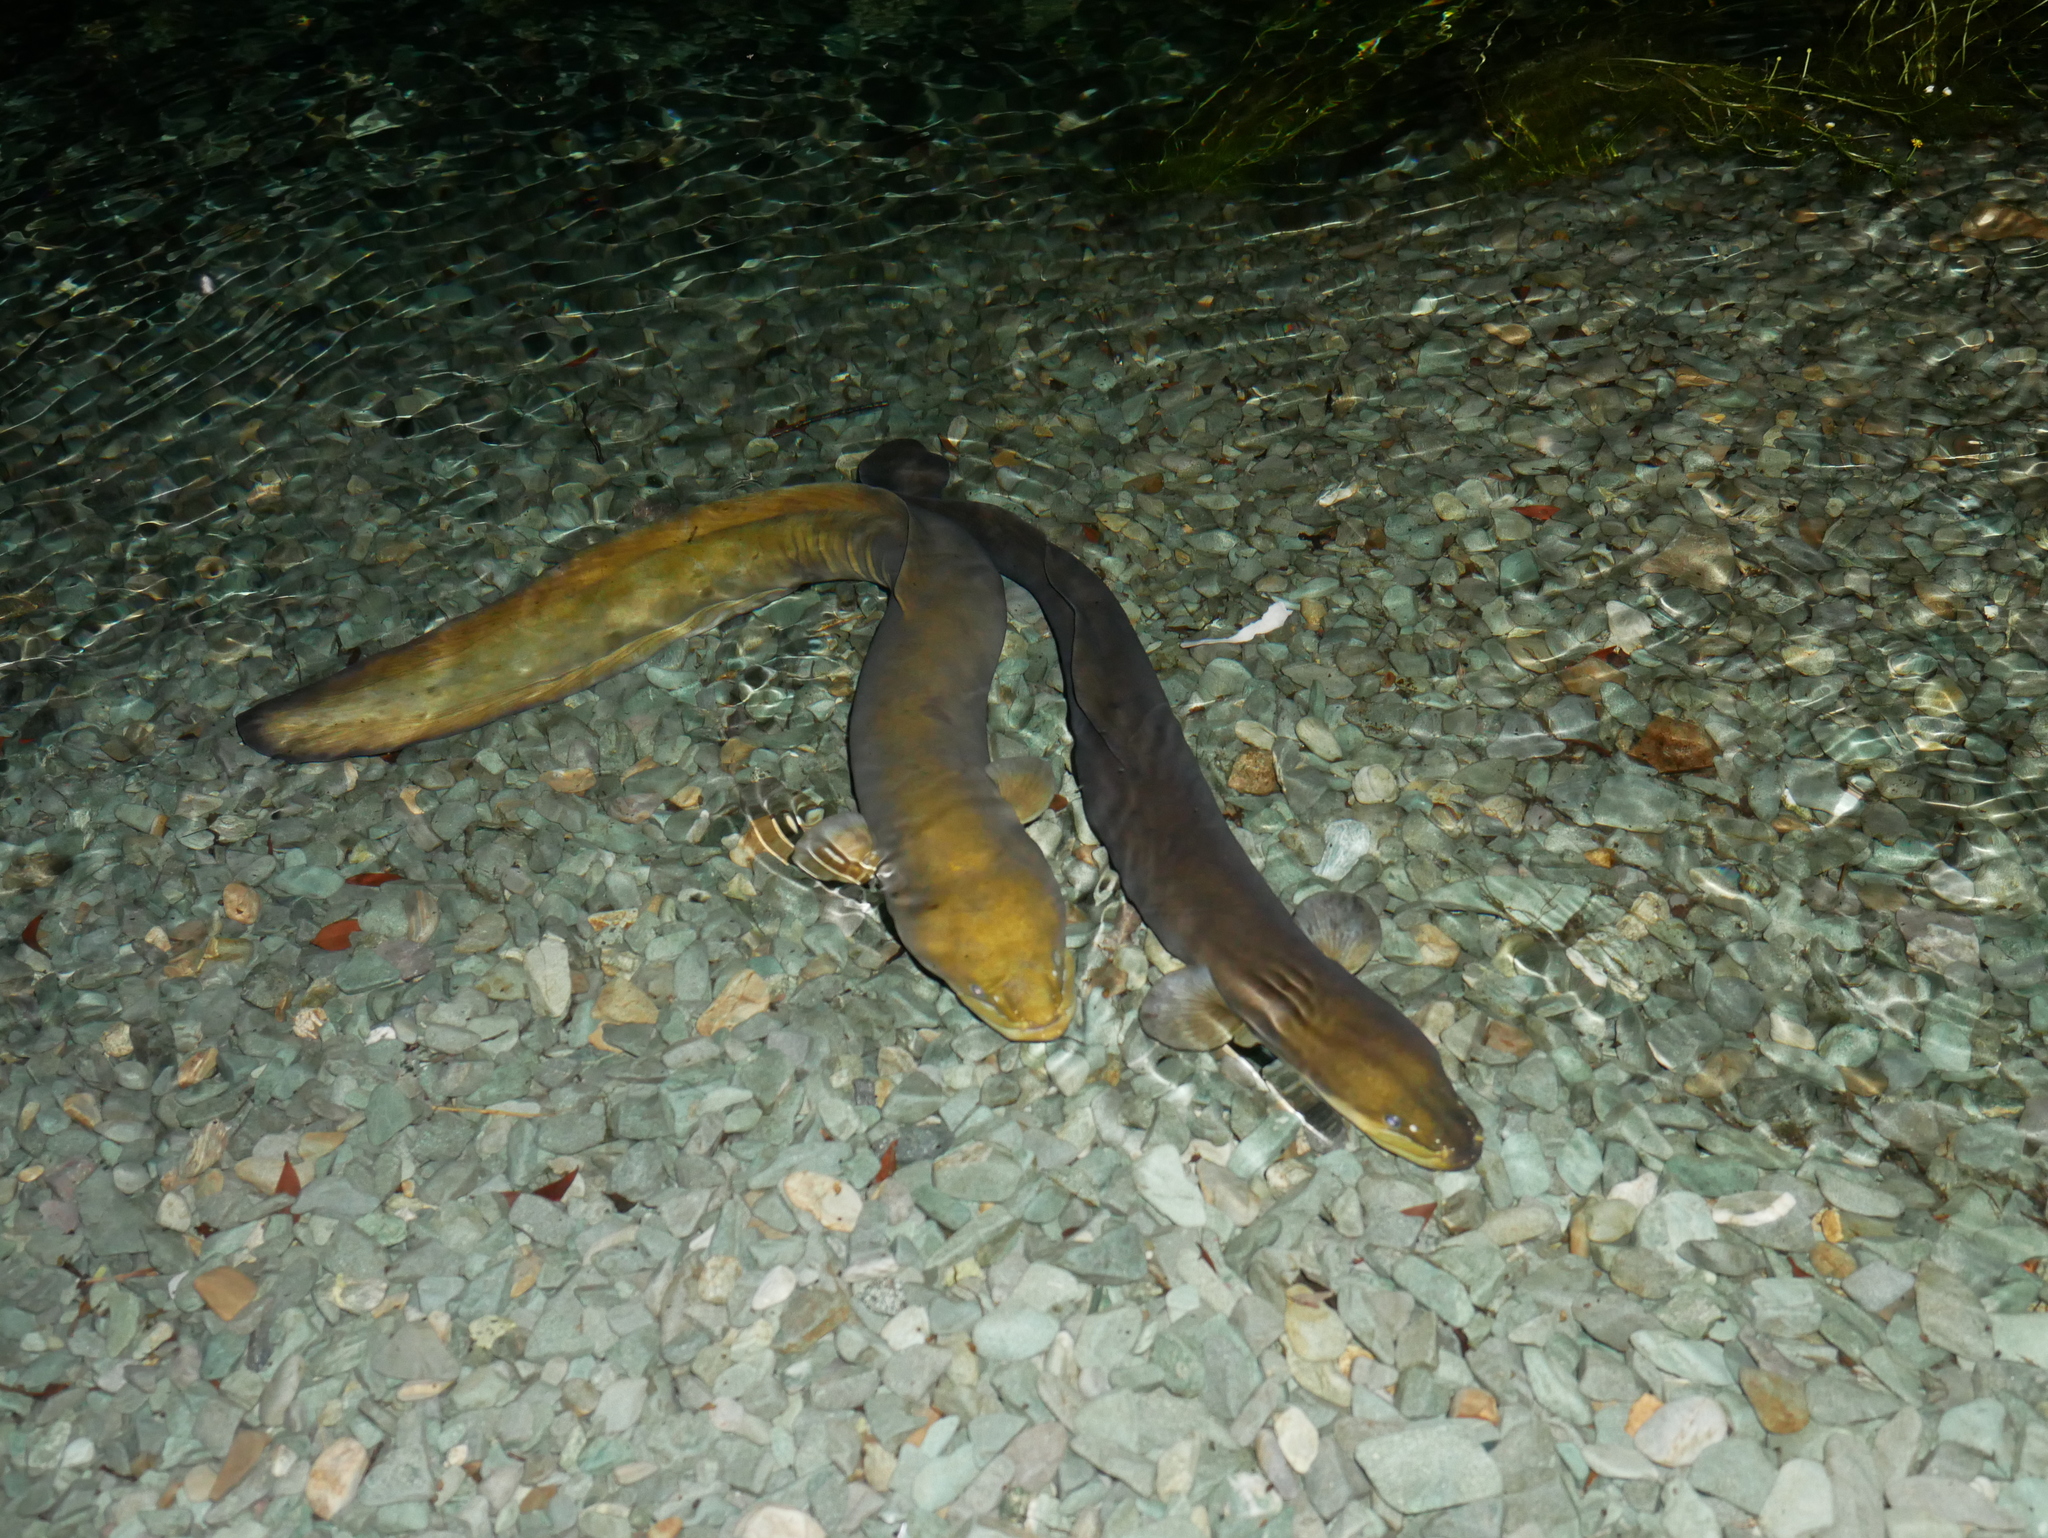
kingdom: Animalia
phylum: Chordata
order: Anguilliformes
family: Anguillidae
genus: Anguilla
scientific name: Anguilla dieffenbachii
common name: New zealand longfin eel
